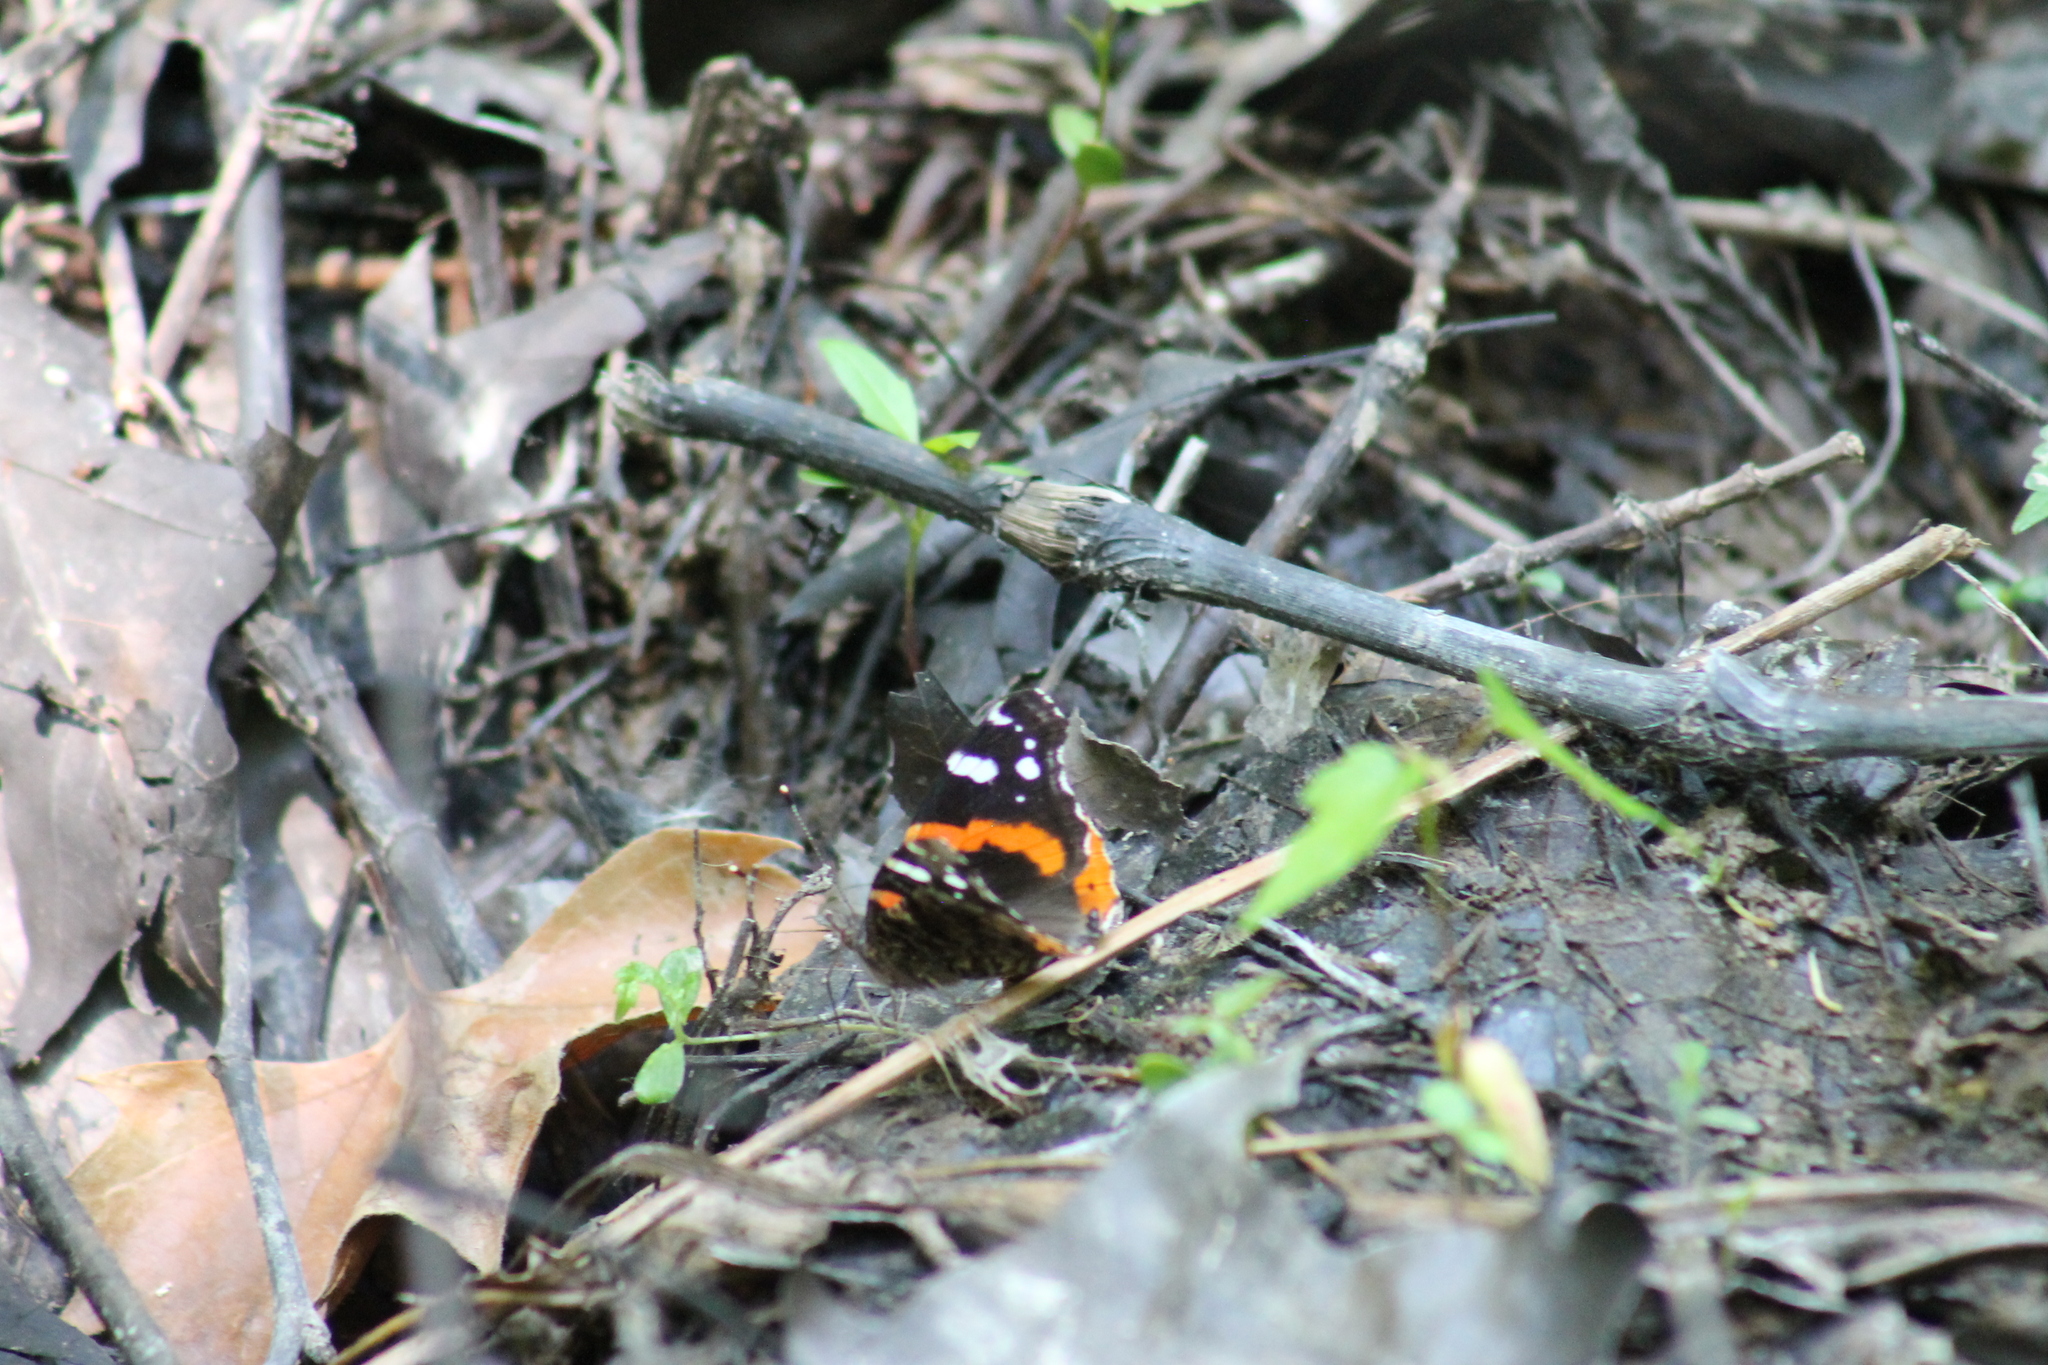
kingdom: Animalia
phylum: Arthropoda
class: Insecta
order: Lepidoptera
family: Nymphalidae
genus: Vanessa
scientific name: Vanessa atalanta
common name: Red admiral
